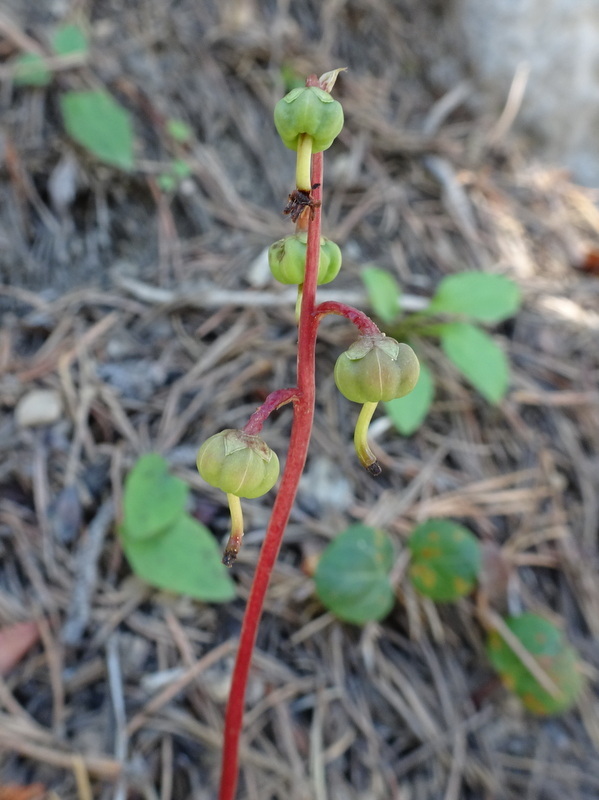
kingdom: Plantae
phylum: Tracheophyta
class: Magnoliopsida
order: Ericales
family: Ericaceae
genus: Pyrola
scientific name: Pyrola chlorantha
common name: Green wintergreen
